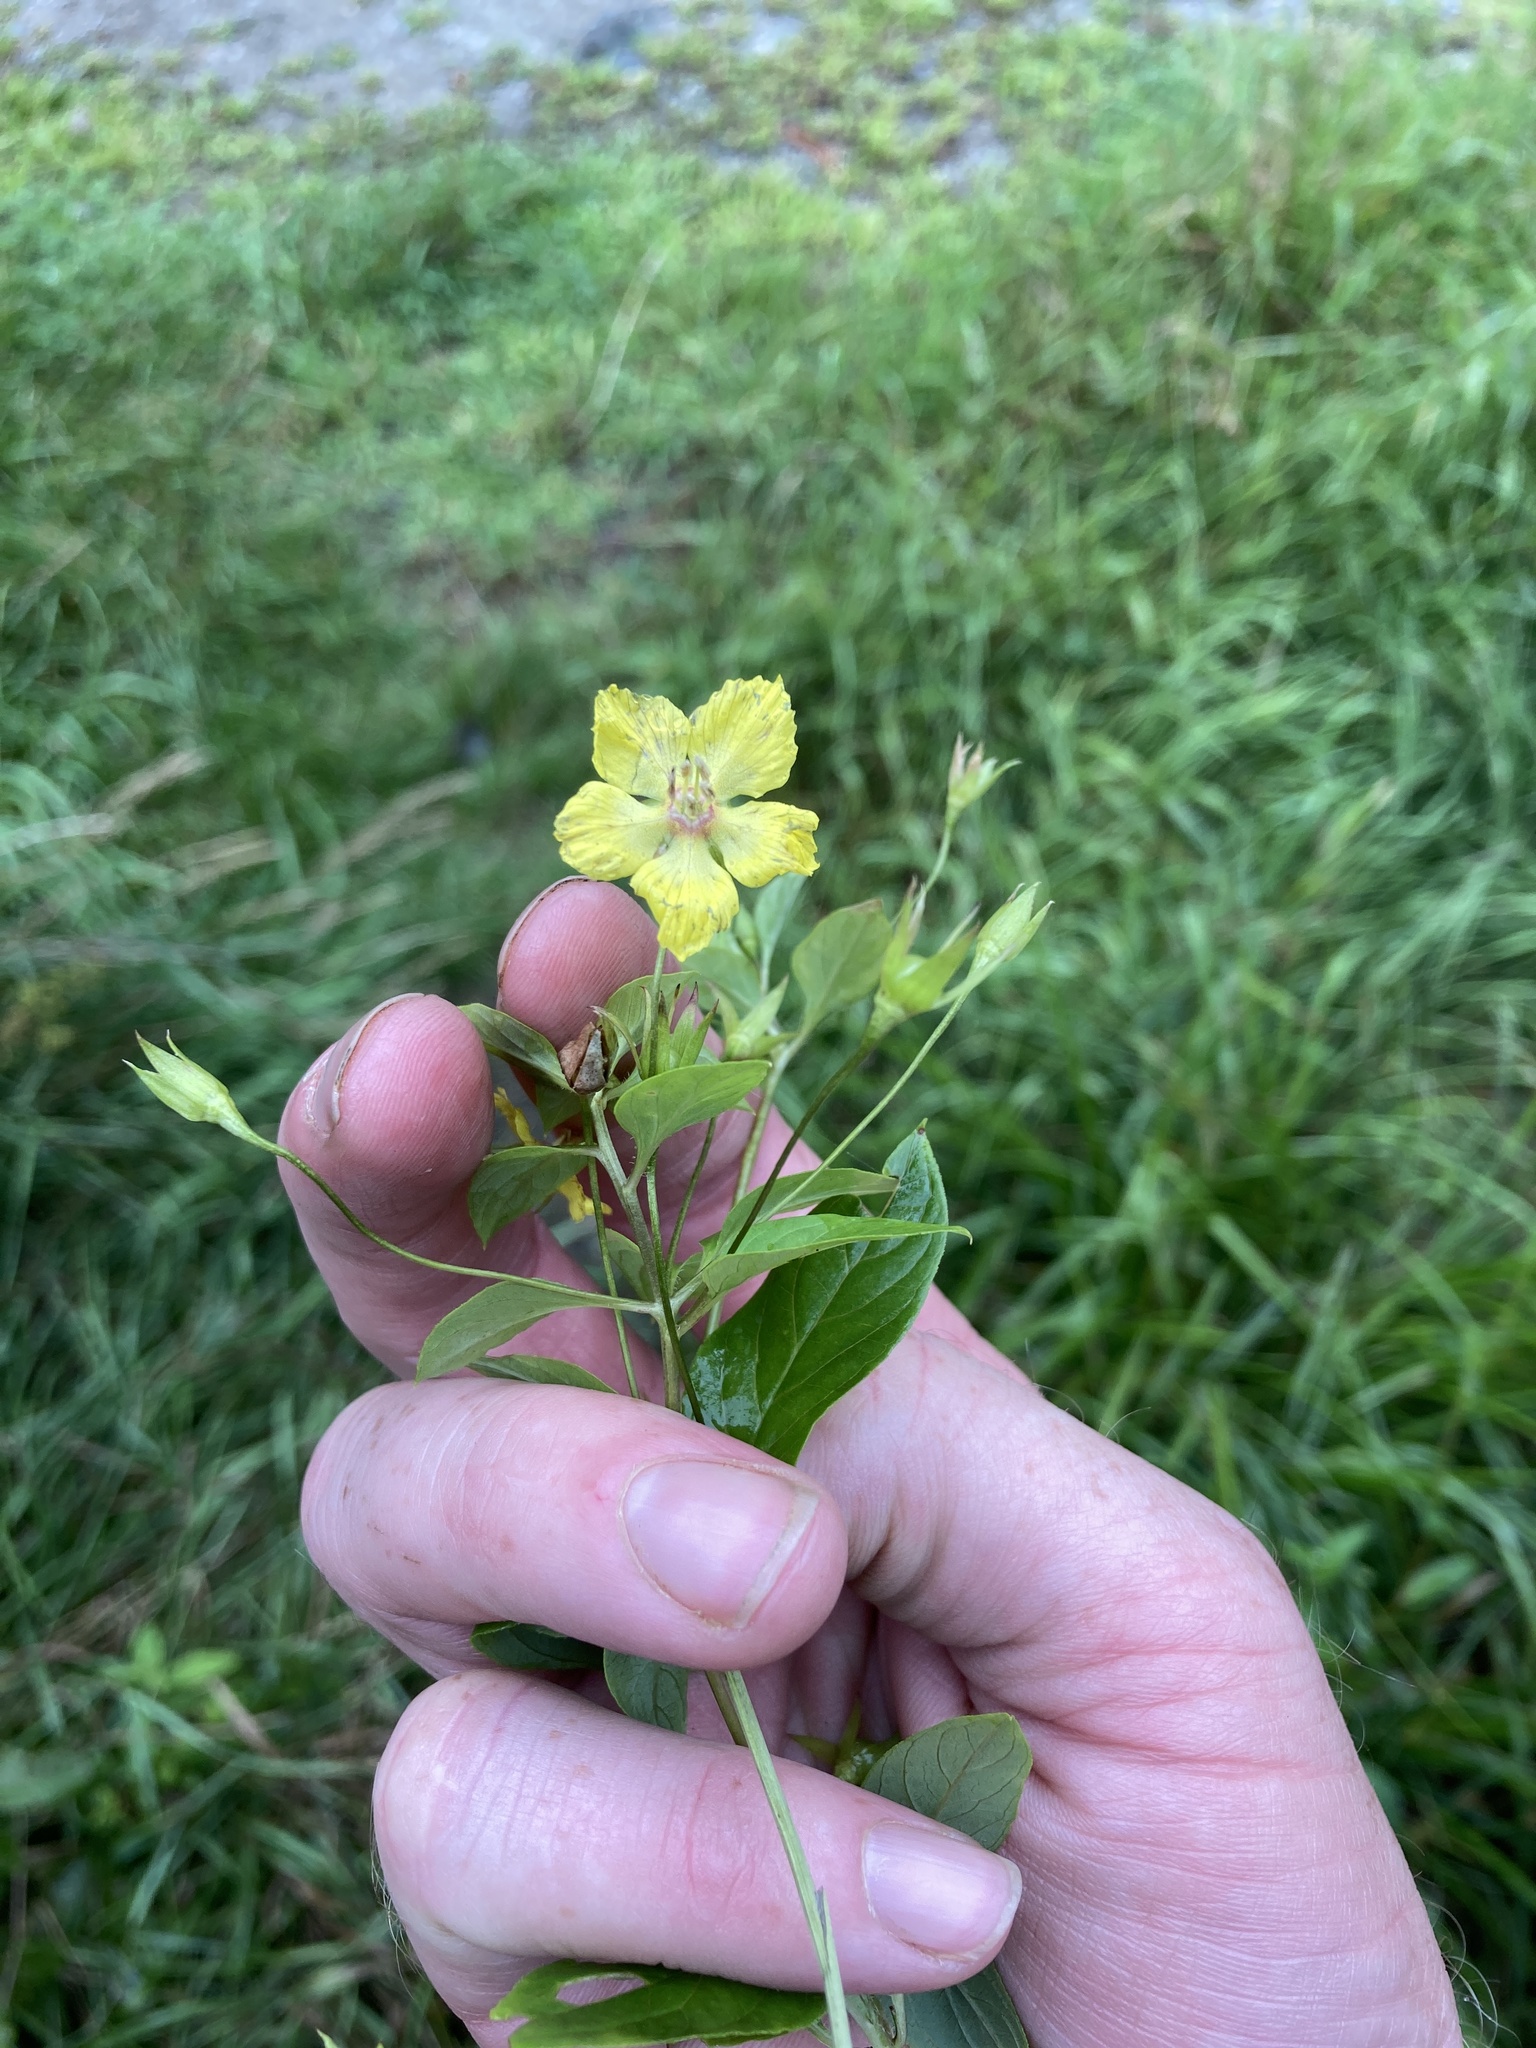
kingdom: Plantae
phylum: Tracheophyta
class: Magnoliopsida
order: Ericales
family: Primulaceae
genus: Lysimachia
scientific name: Lysimachia ciliata
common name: Fringed loosestrife
